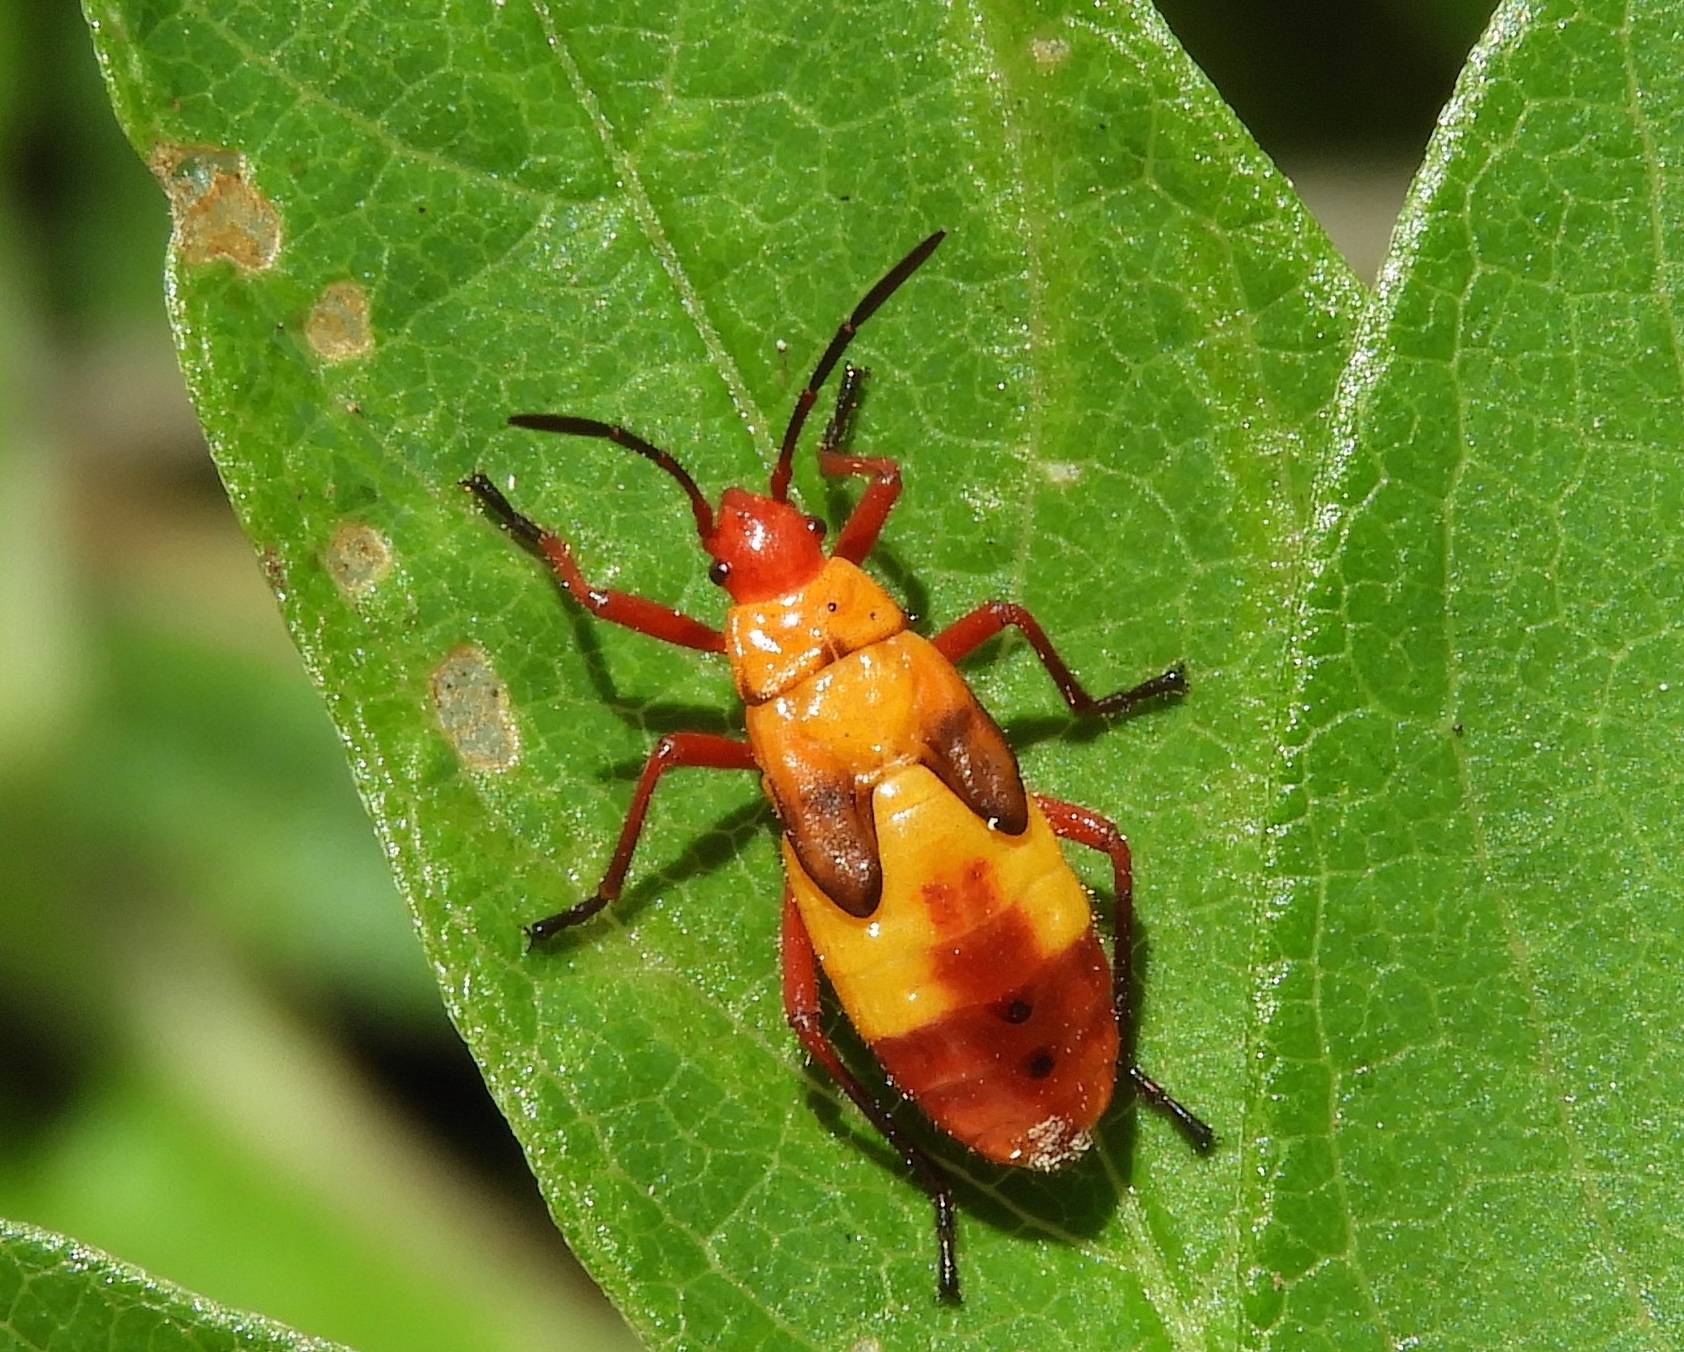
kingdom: Animalia
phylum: Arthropoda
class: Insecta
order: Hemiptera
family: Lygaeidae
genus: Oncopeltus
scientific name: Oncopeltus guttaloides
